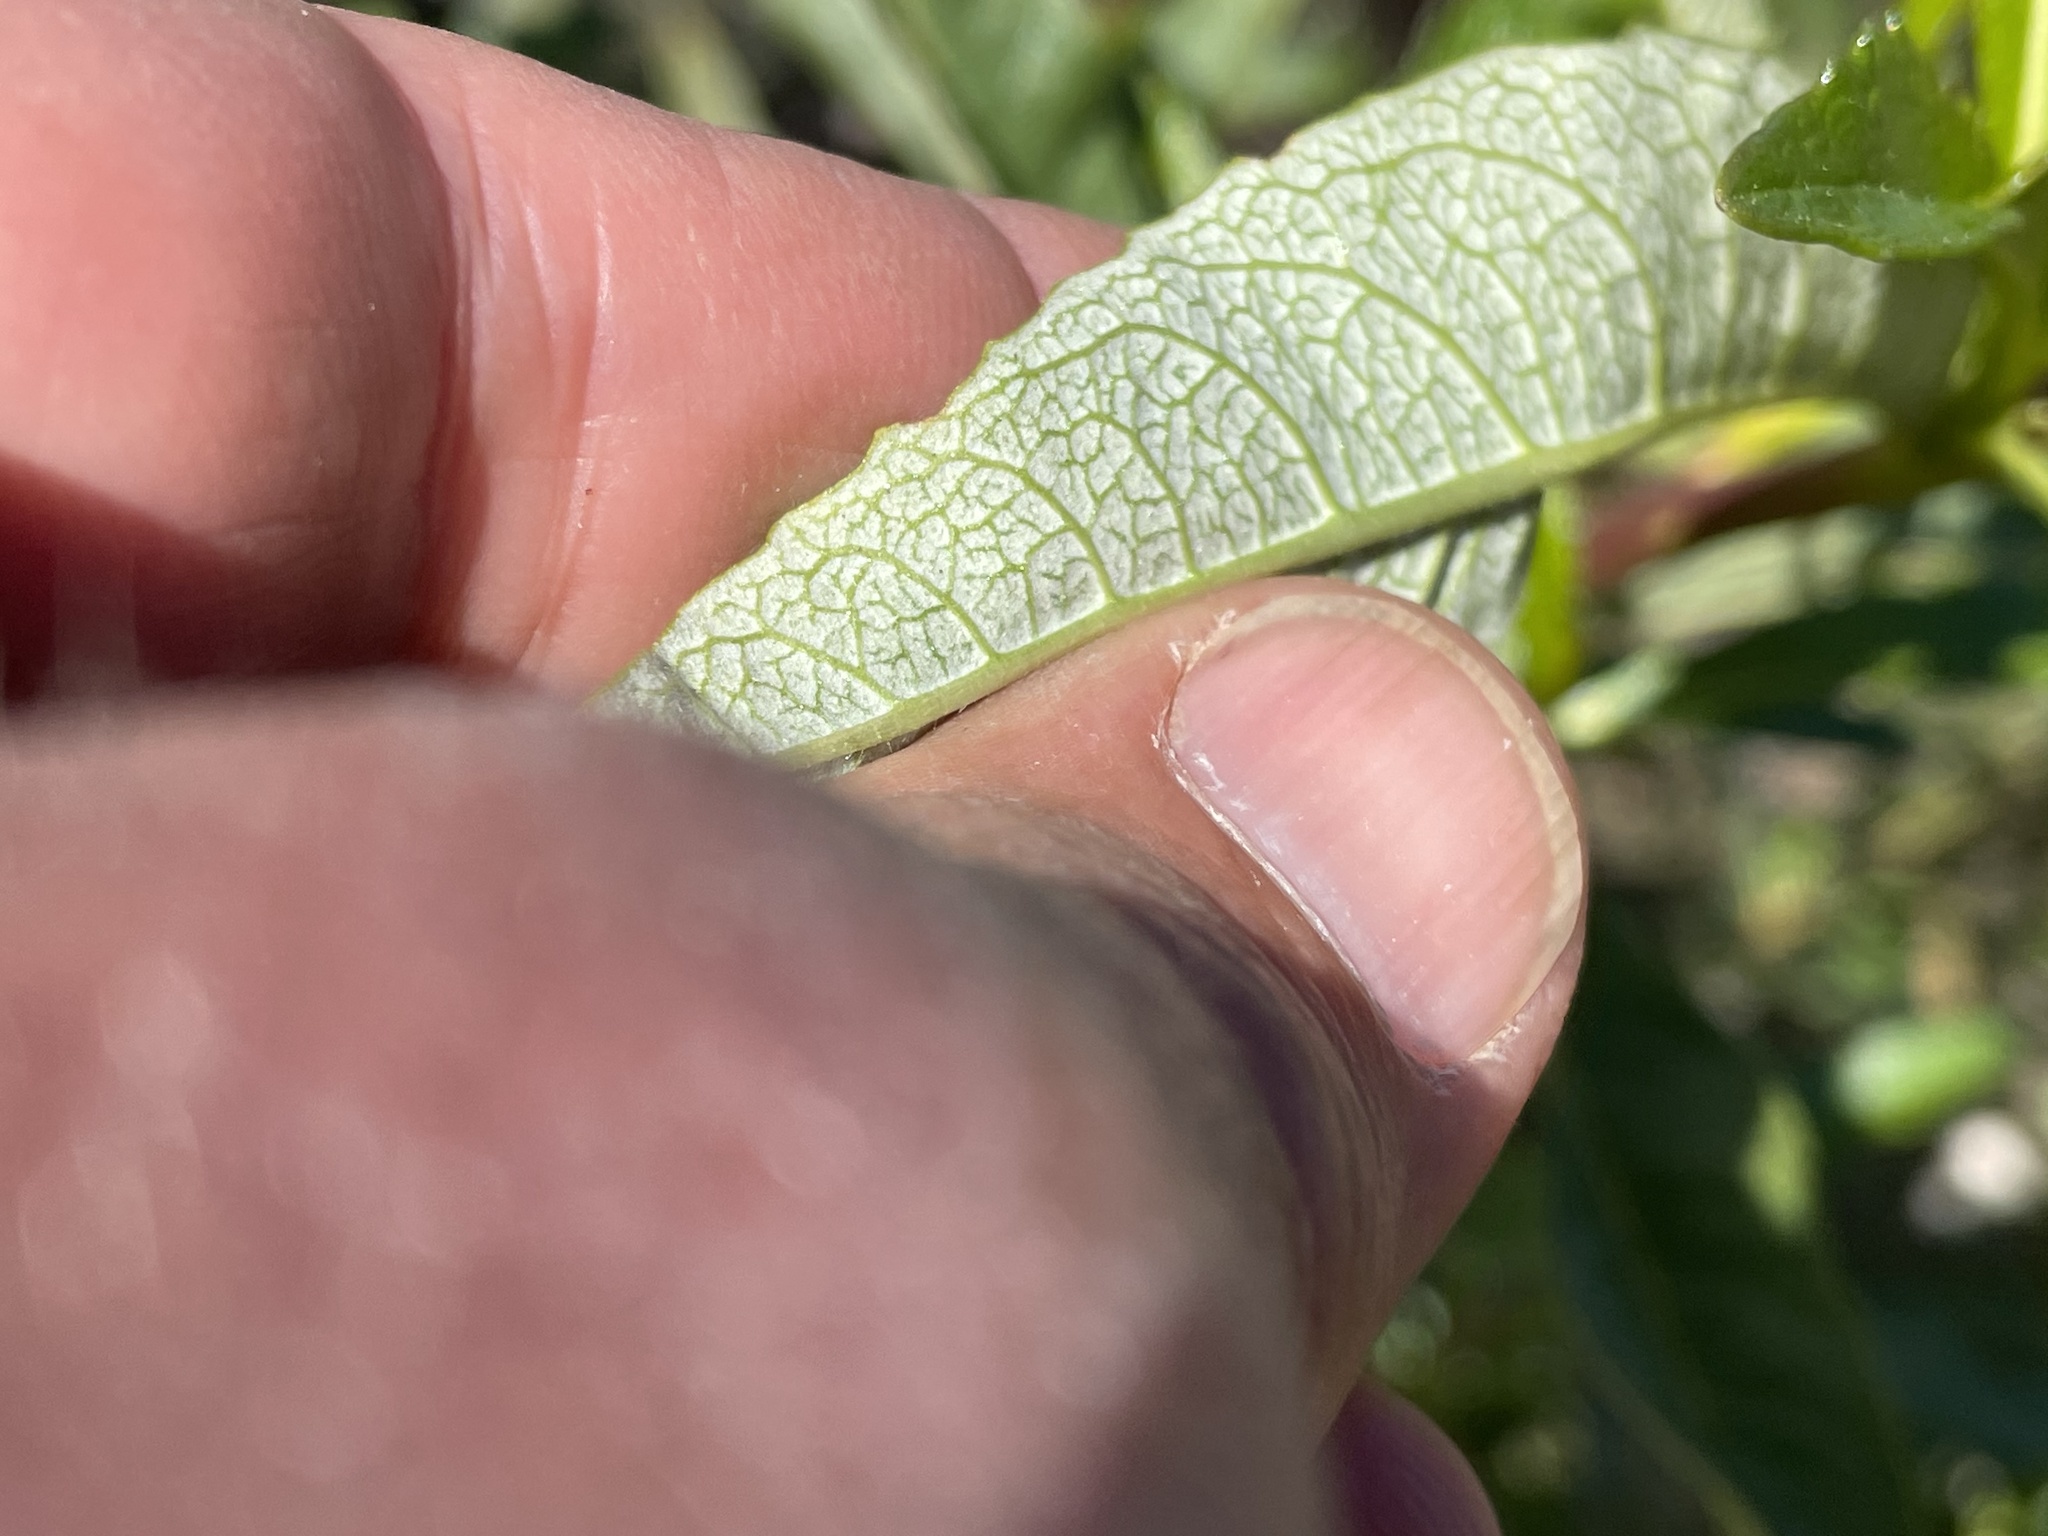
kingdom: Plantae
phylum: Tracheophyta
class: Magnoliopsida
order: Boraginales
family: Namaceae
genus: Eriodictyon
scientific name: Eriodictyon californicum
